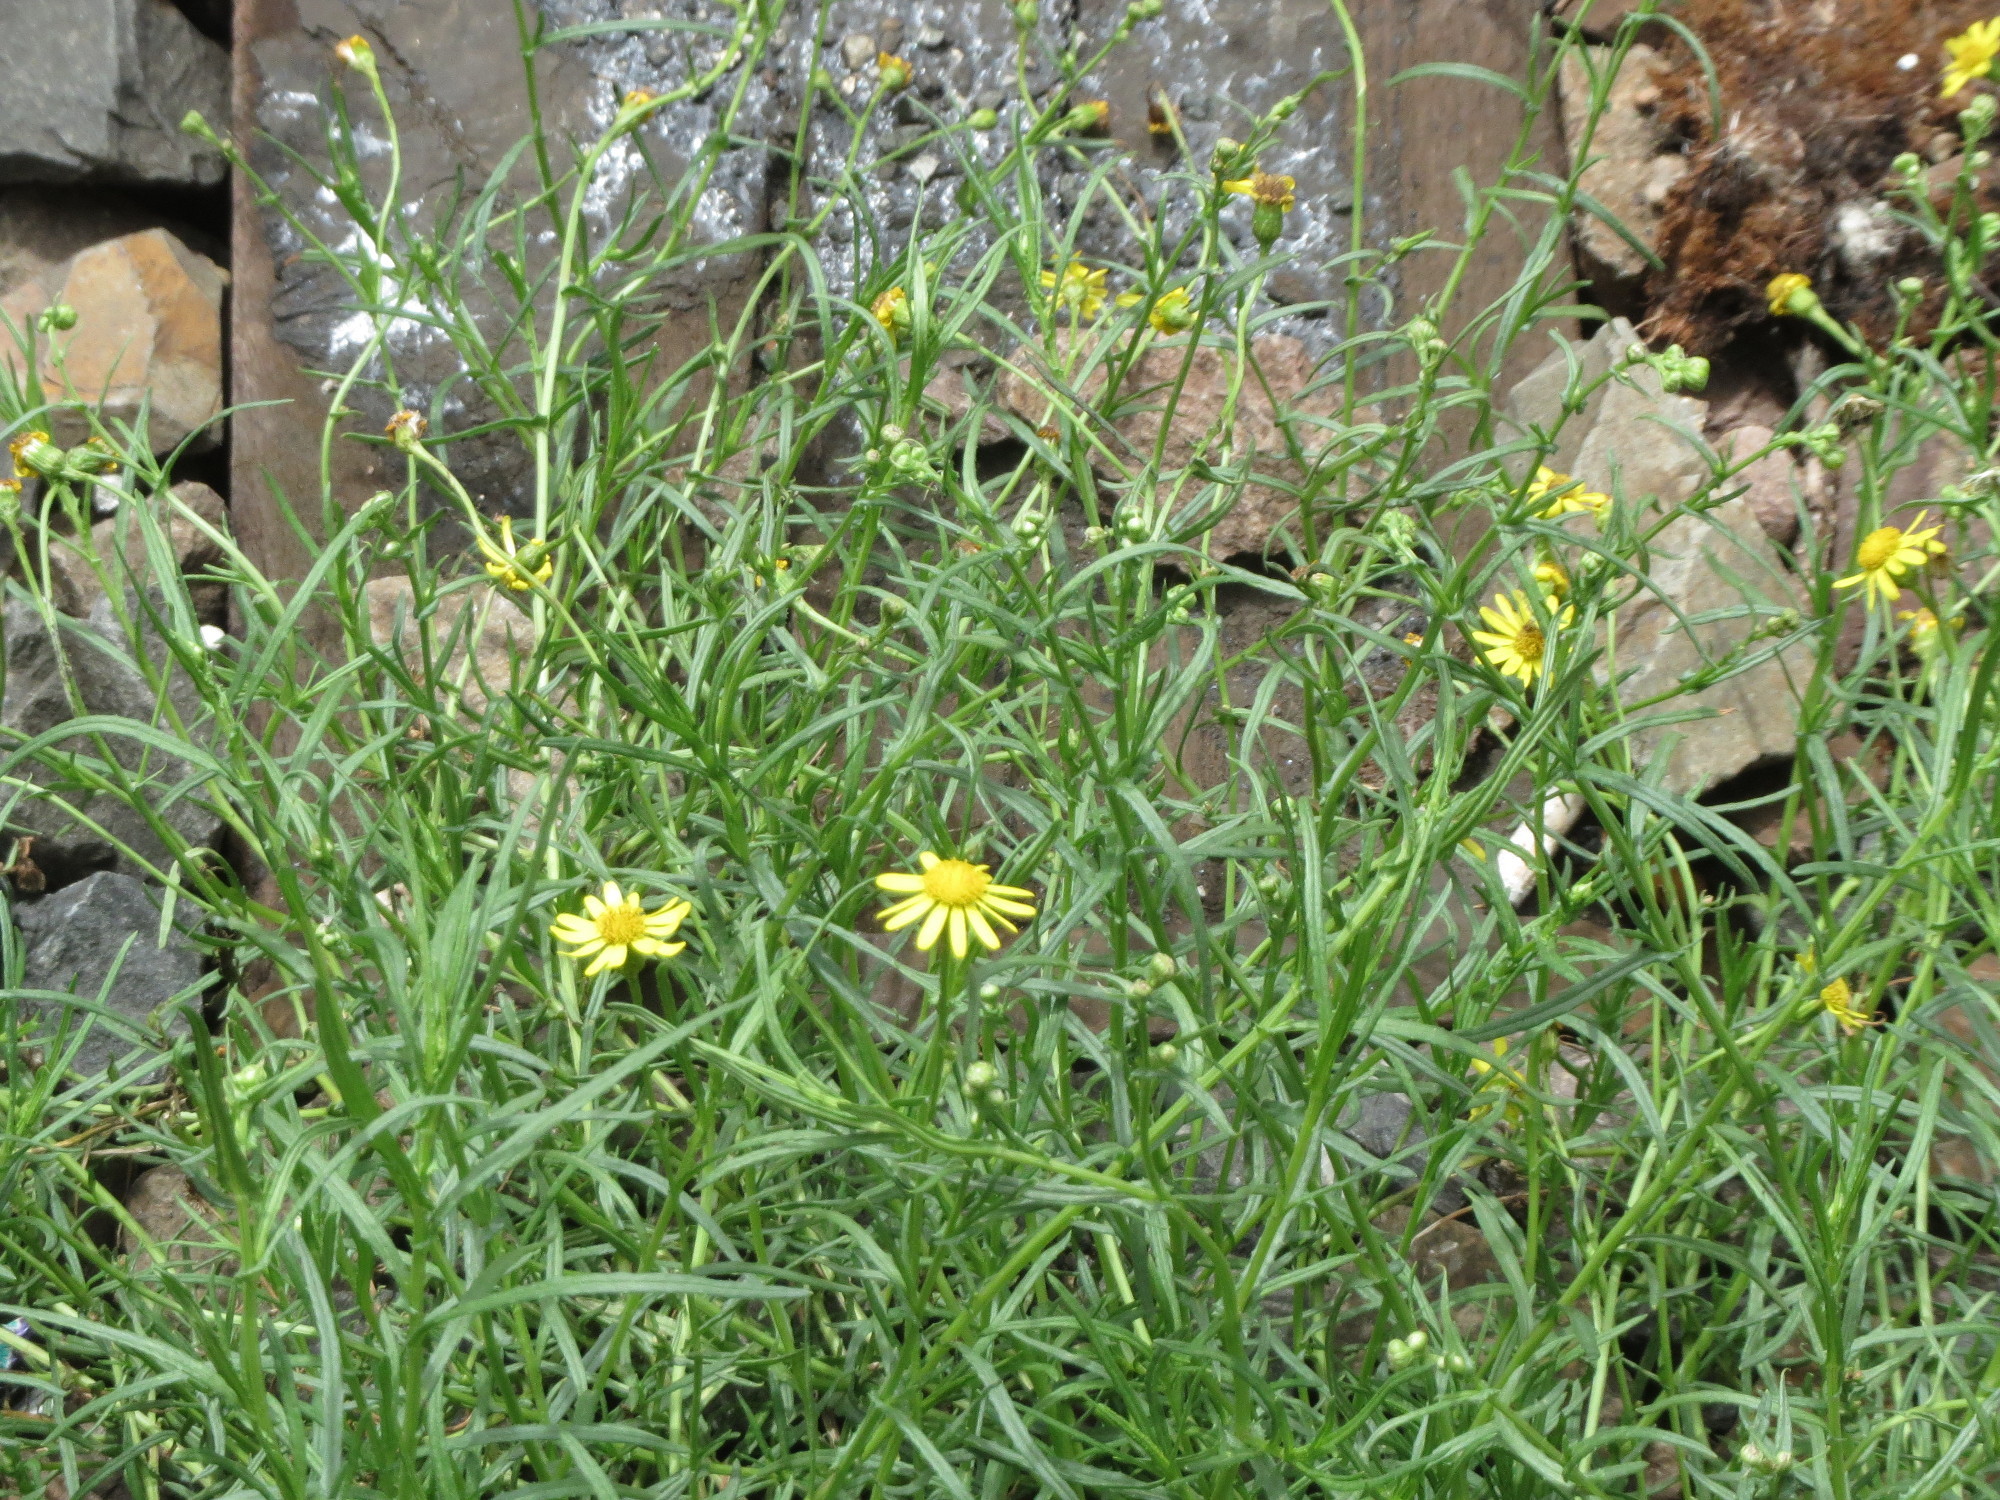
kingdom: Plantae
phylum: Tracheophyta
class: Magnoliopsida
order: Asterales
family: Asteraceae
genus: Senecio
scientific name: Senecio inaequidens
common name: Narrow-leaved ragwort
